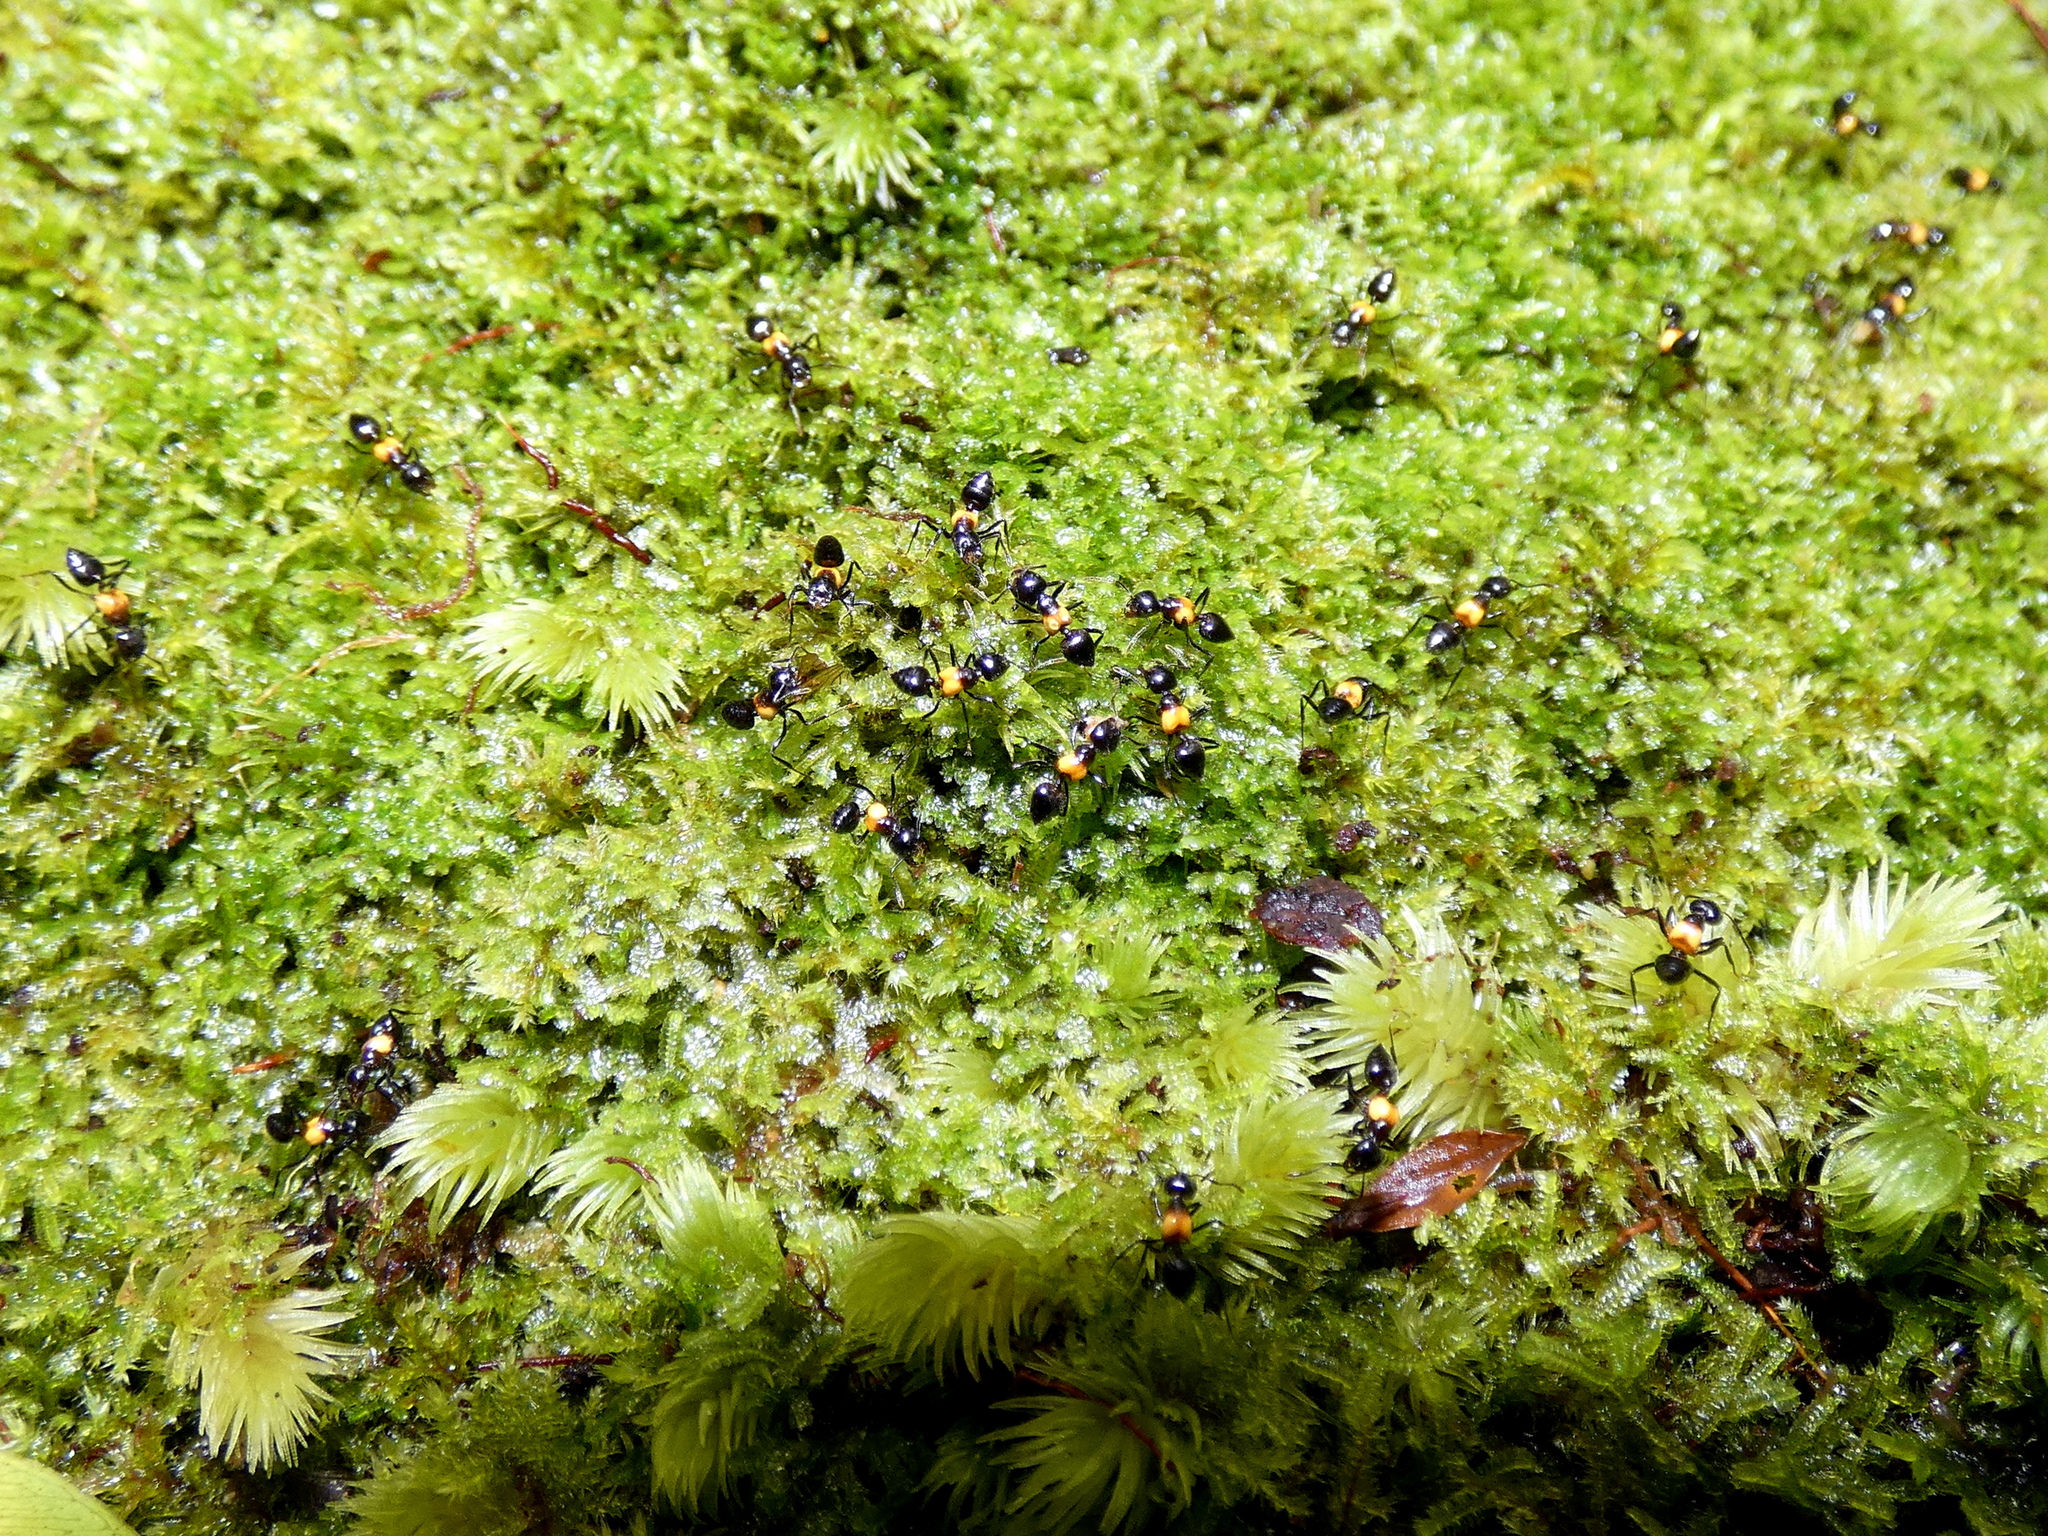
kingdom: Animalia
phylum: Arthropoda
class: Insecta
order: Hymenoptera
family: Formicidae
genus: Crematogaster
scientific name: Crematogaster inflata
